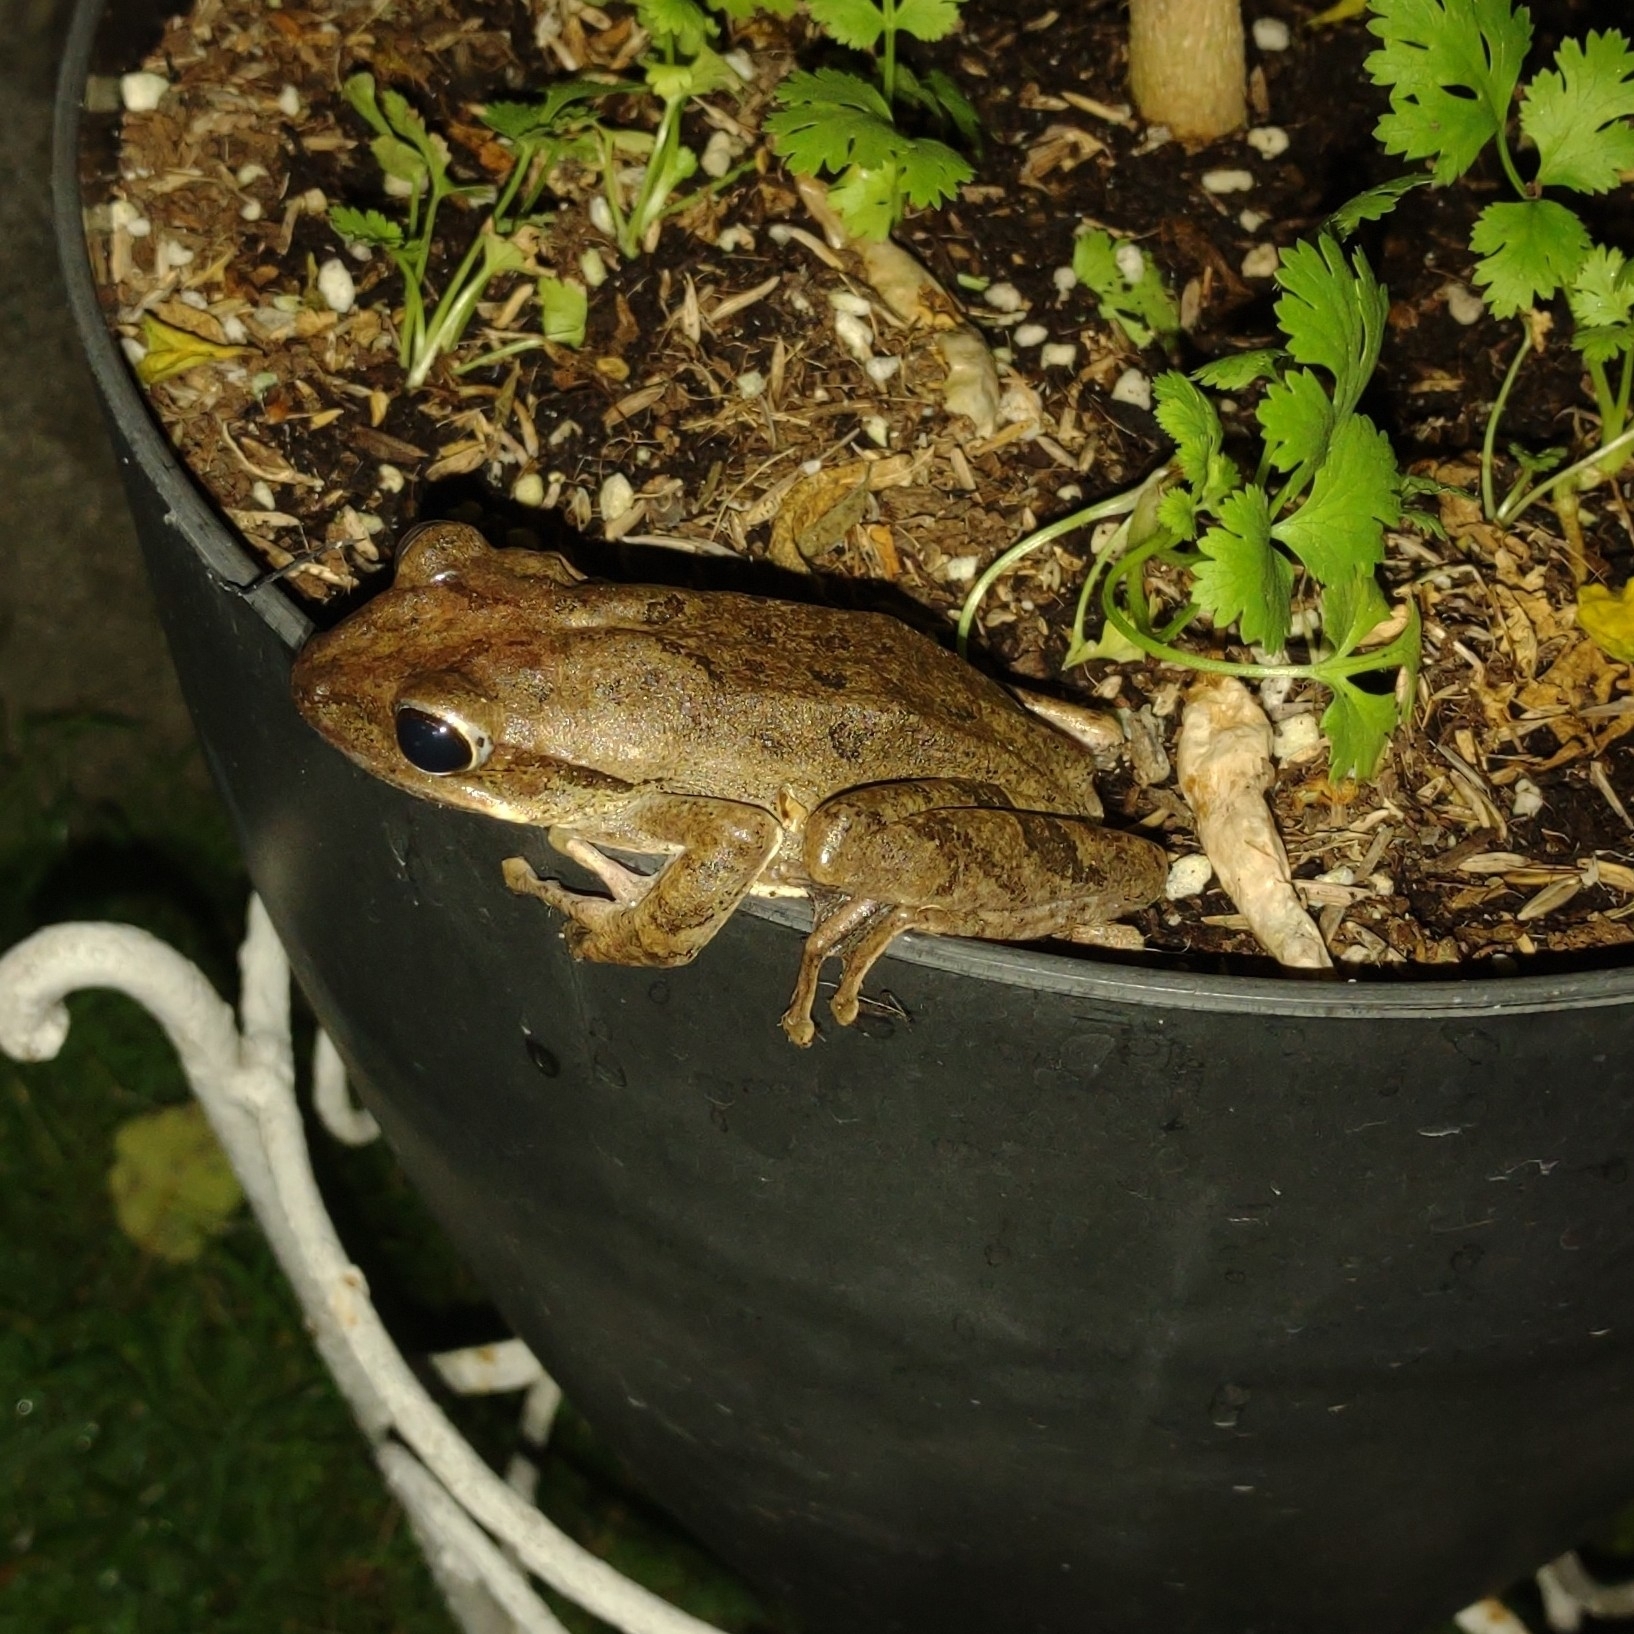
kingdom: Animalia
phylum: Chordata
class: Amphibia
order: Anura
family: Rhacophoridae
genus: Polypedates
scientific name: Polypedates leucomystax
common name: Common tree frog/four-lined tree frog
